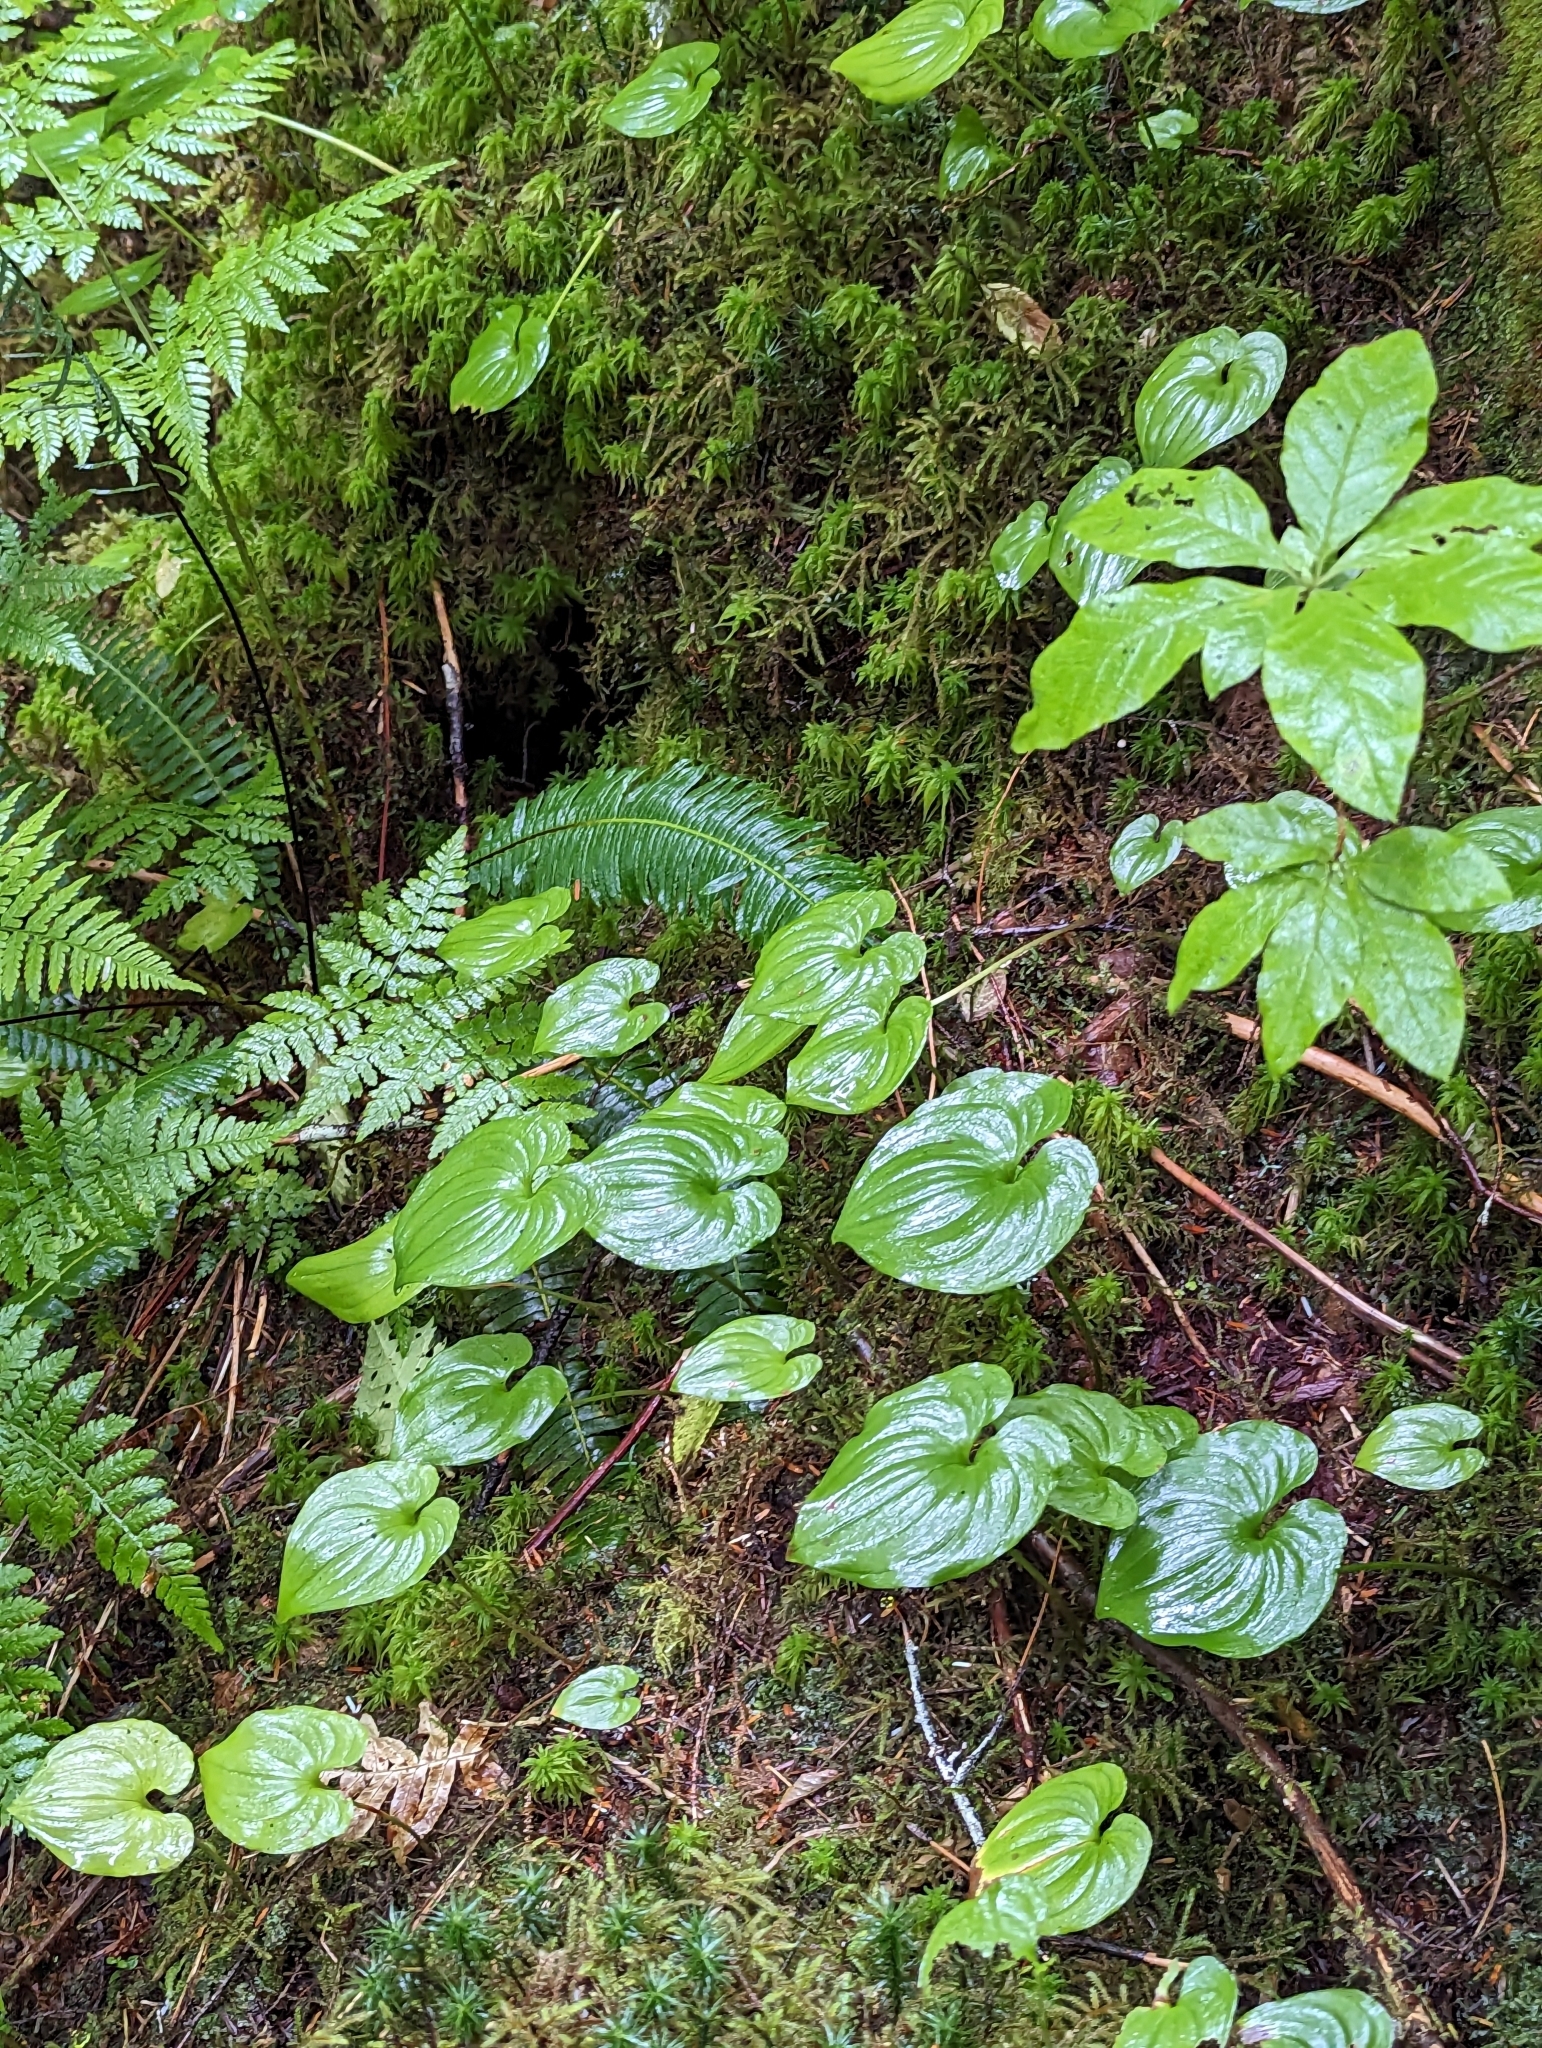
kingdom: Plantae
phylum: Tracheophyta
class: Liliopsida
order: Asparagales
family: Asparagaceae
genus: Maianthemum
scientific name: Maianthemum dilatatum
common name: False lily-of-the-valley
